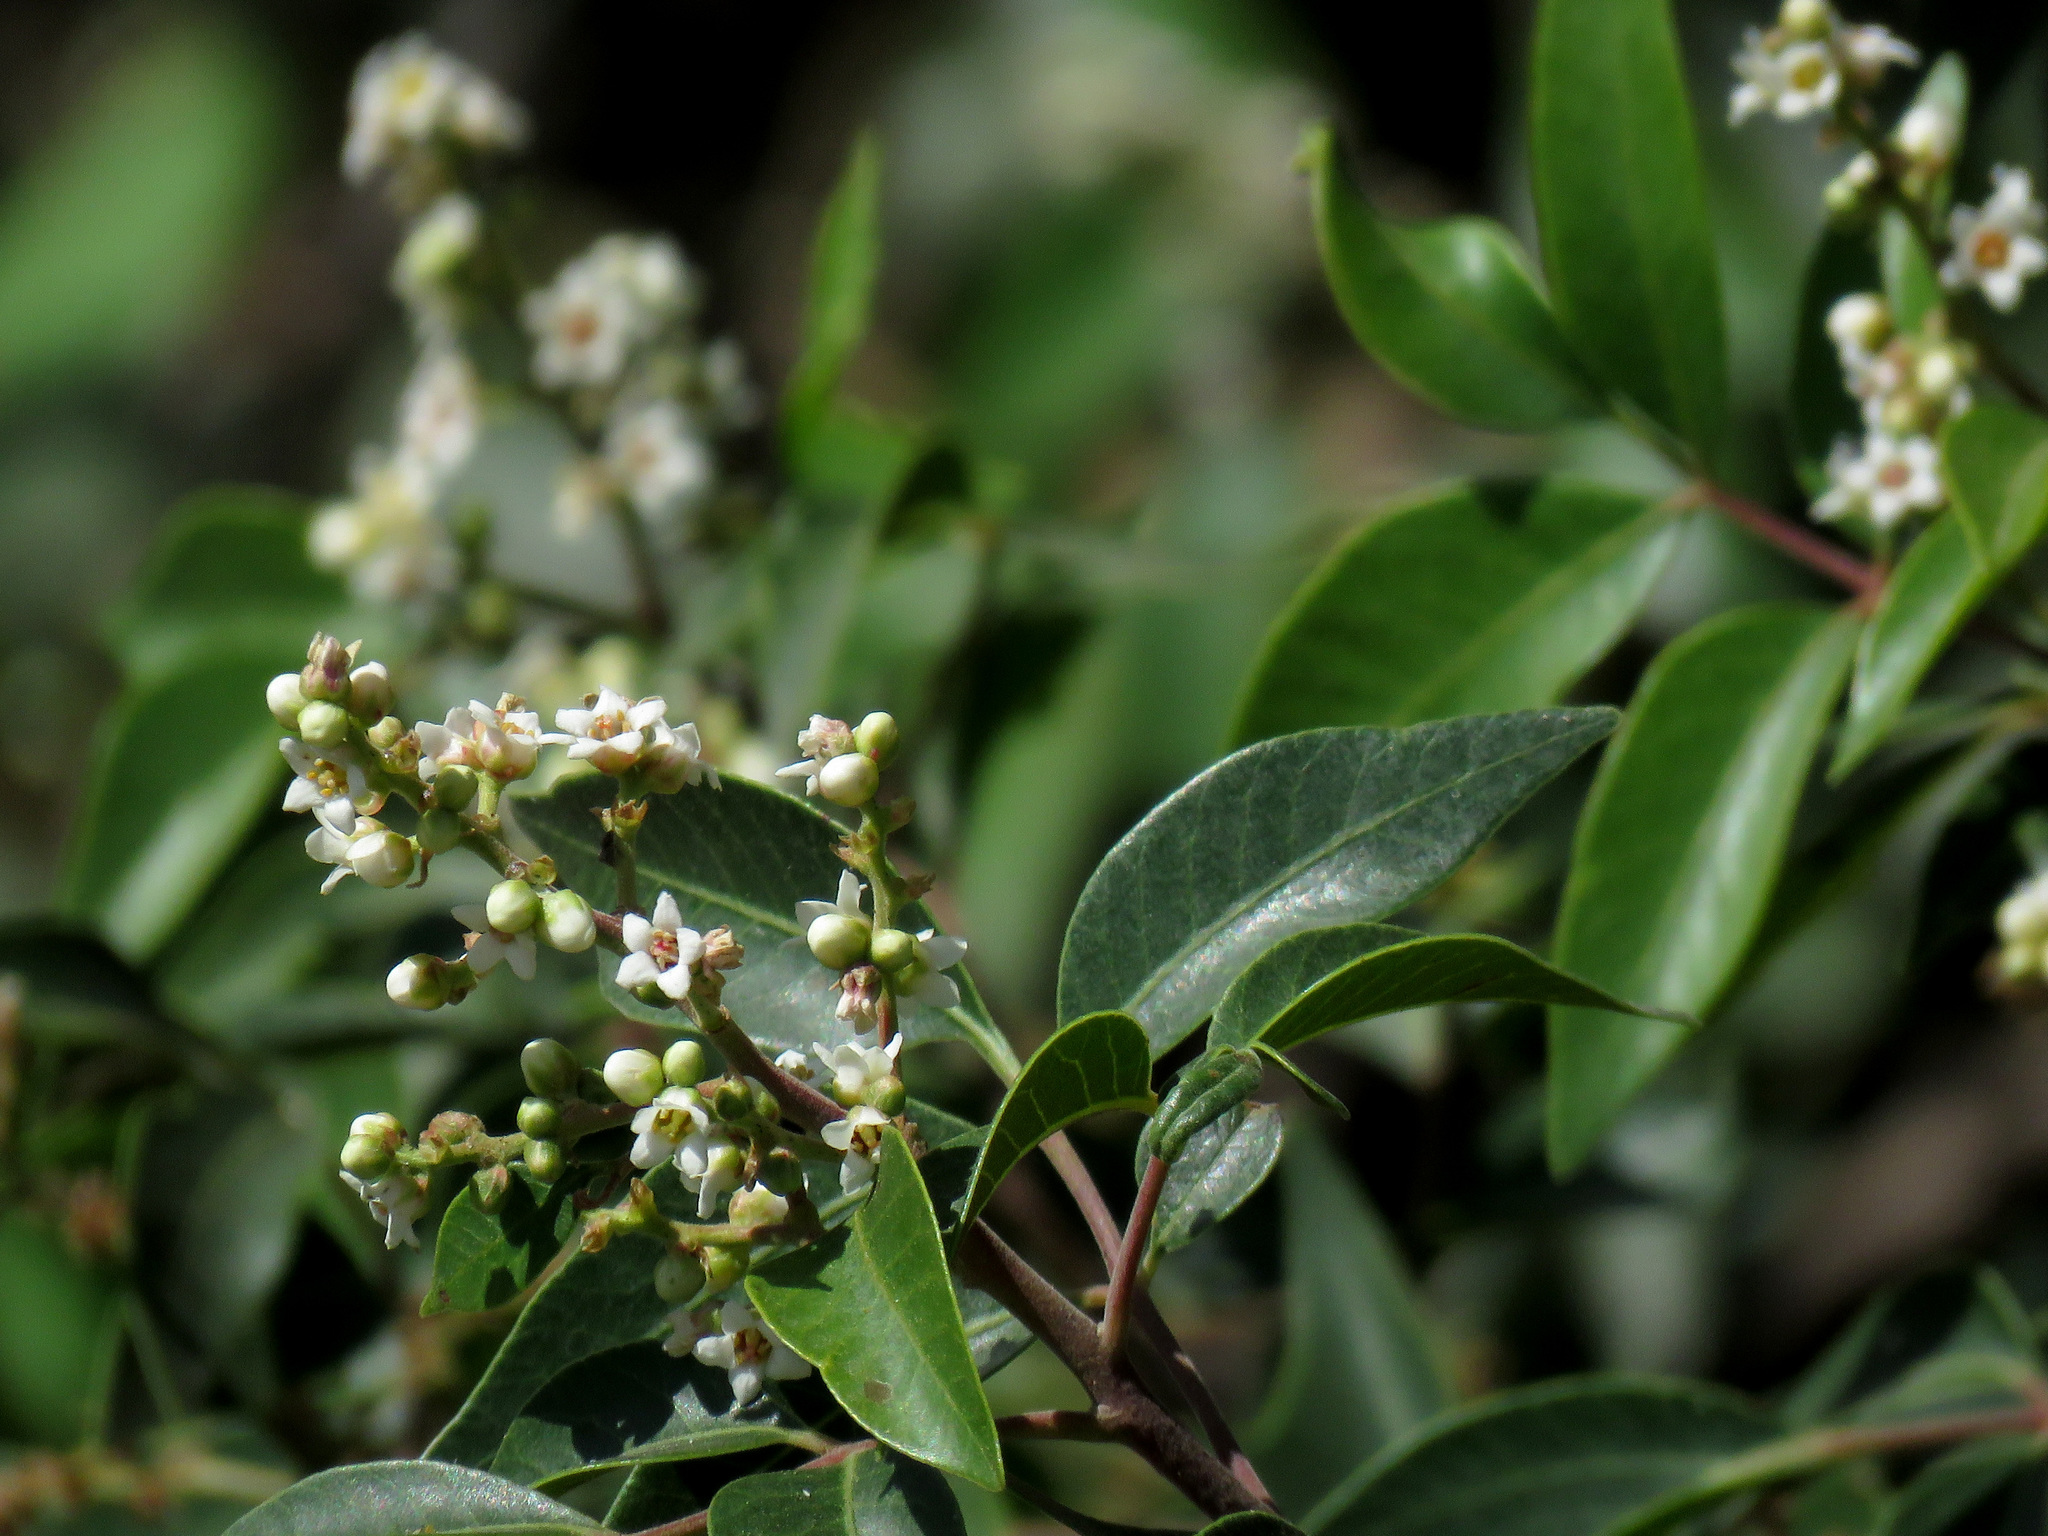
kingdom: Plantae
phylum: Tracheophyta
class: Magnoliopsida
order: Sapindales
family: Anacardiaceae
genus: Rhus
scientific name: Rhus virens
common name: Evergreen sumac
